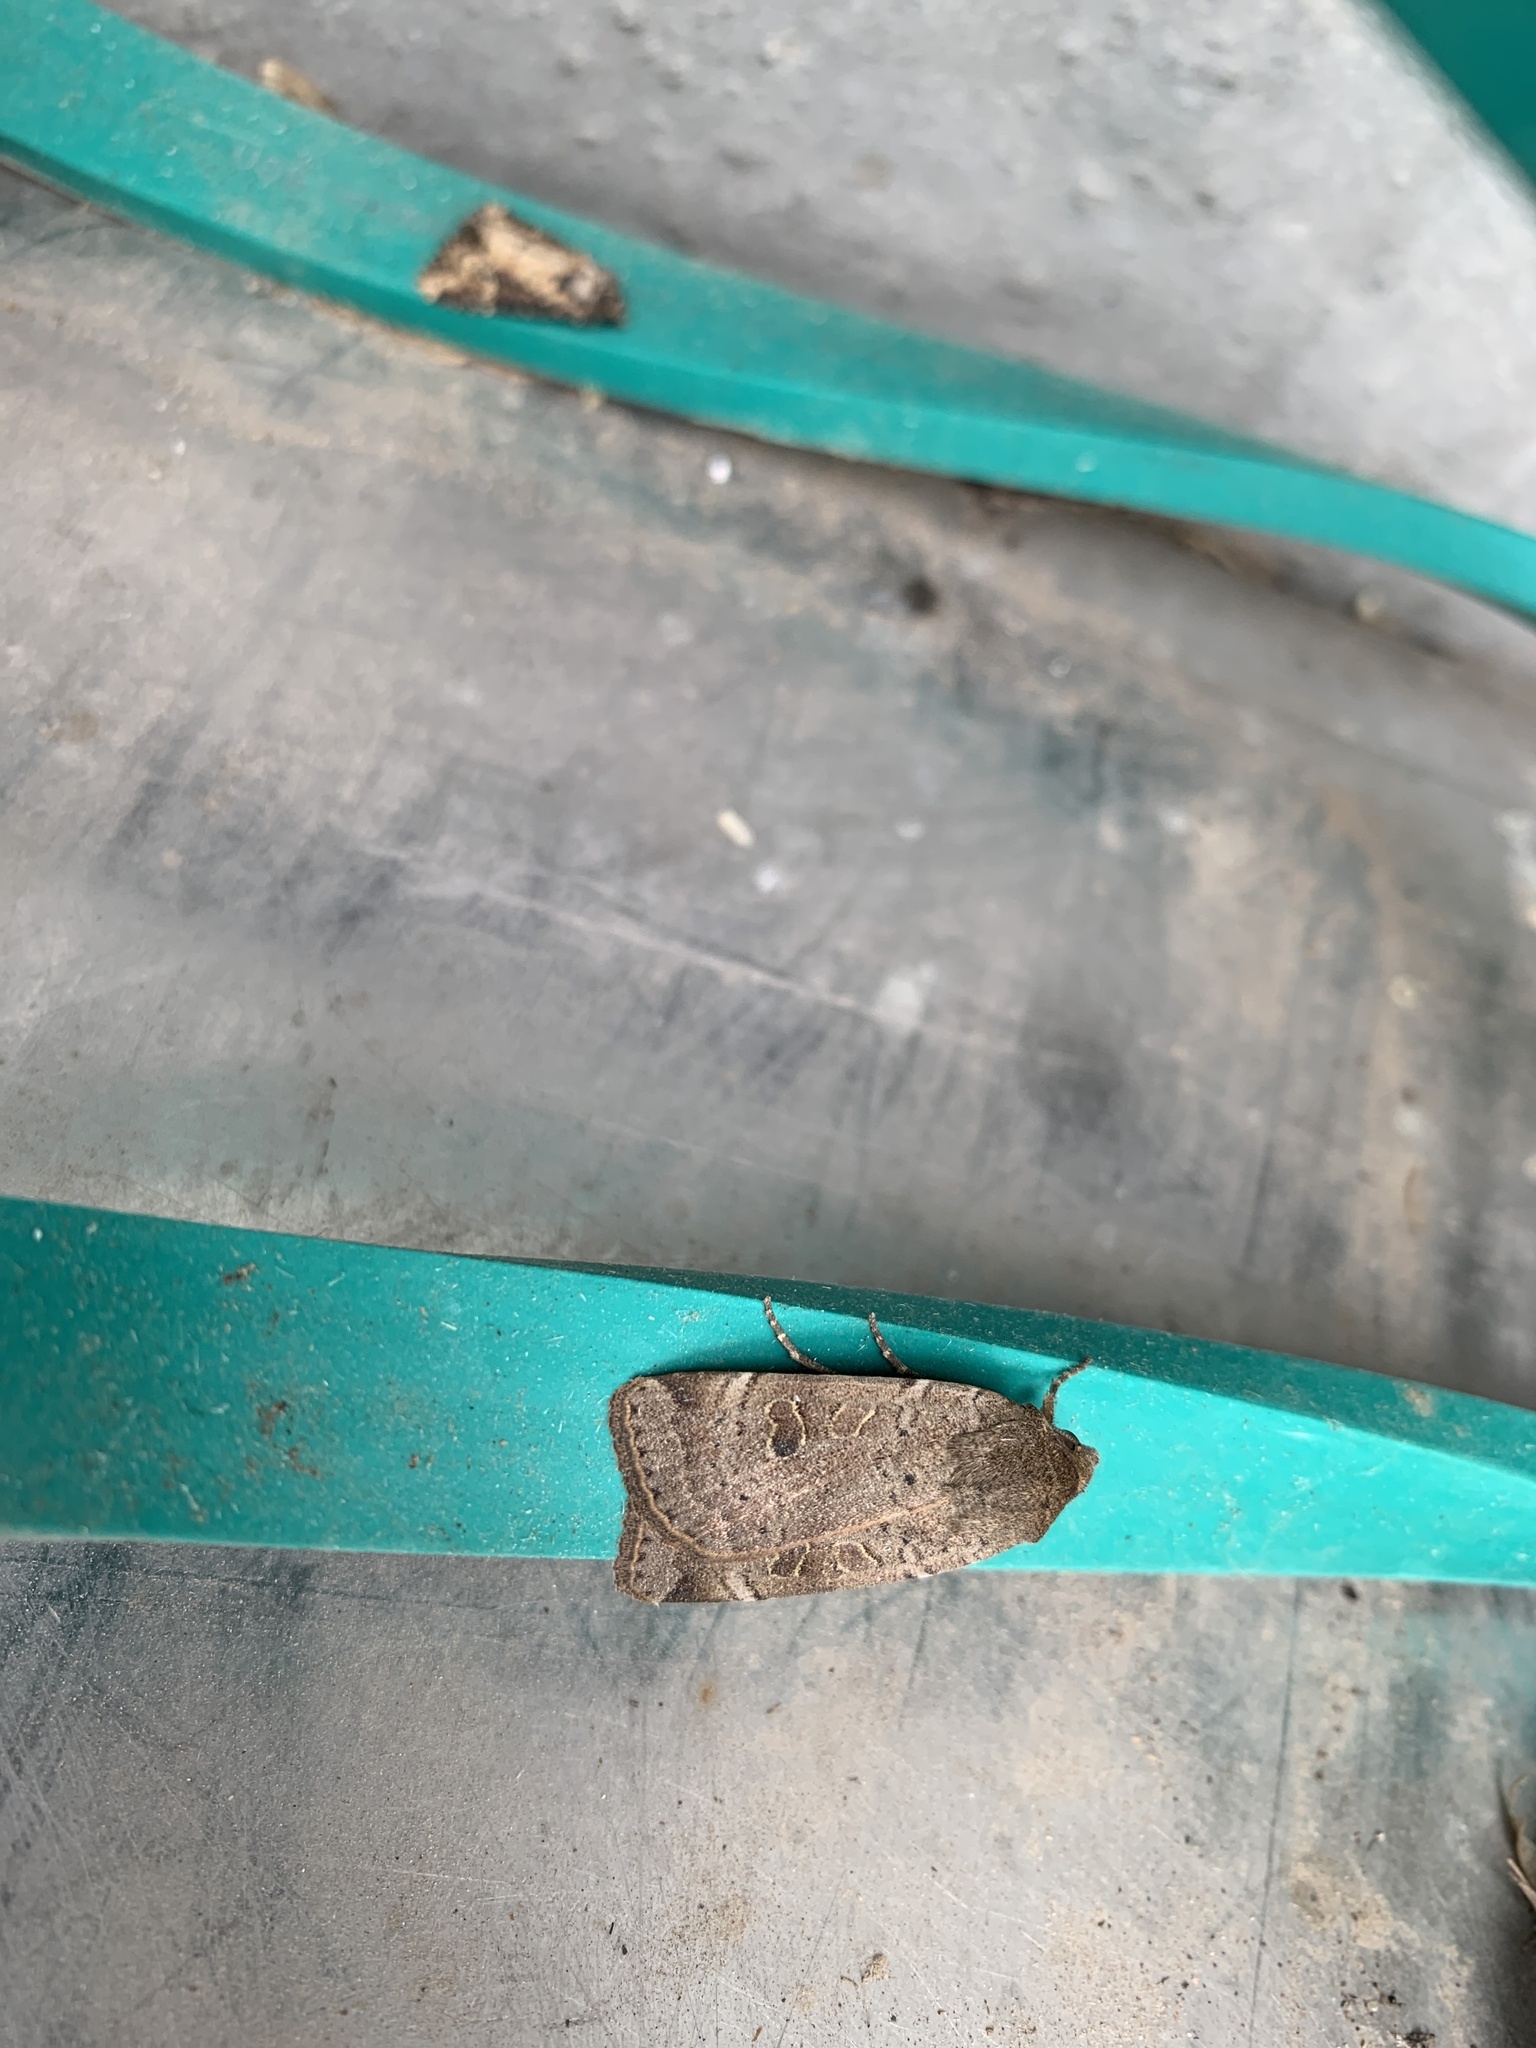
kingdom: Animalia
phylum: Arthropoda
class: Insecta
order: Lepidoptera
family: Noctuidae
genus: Noctua
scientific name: Noctua comes
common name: Lesser yellow underwing
